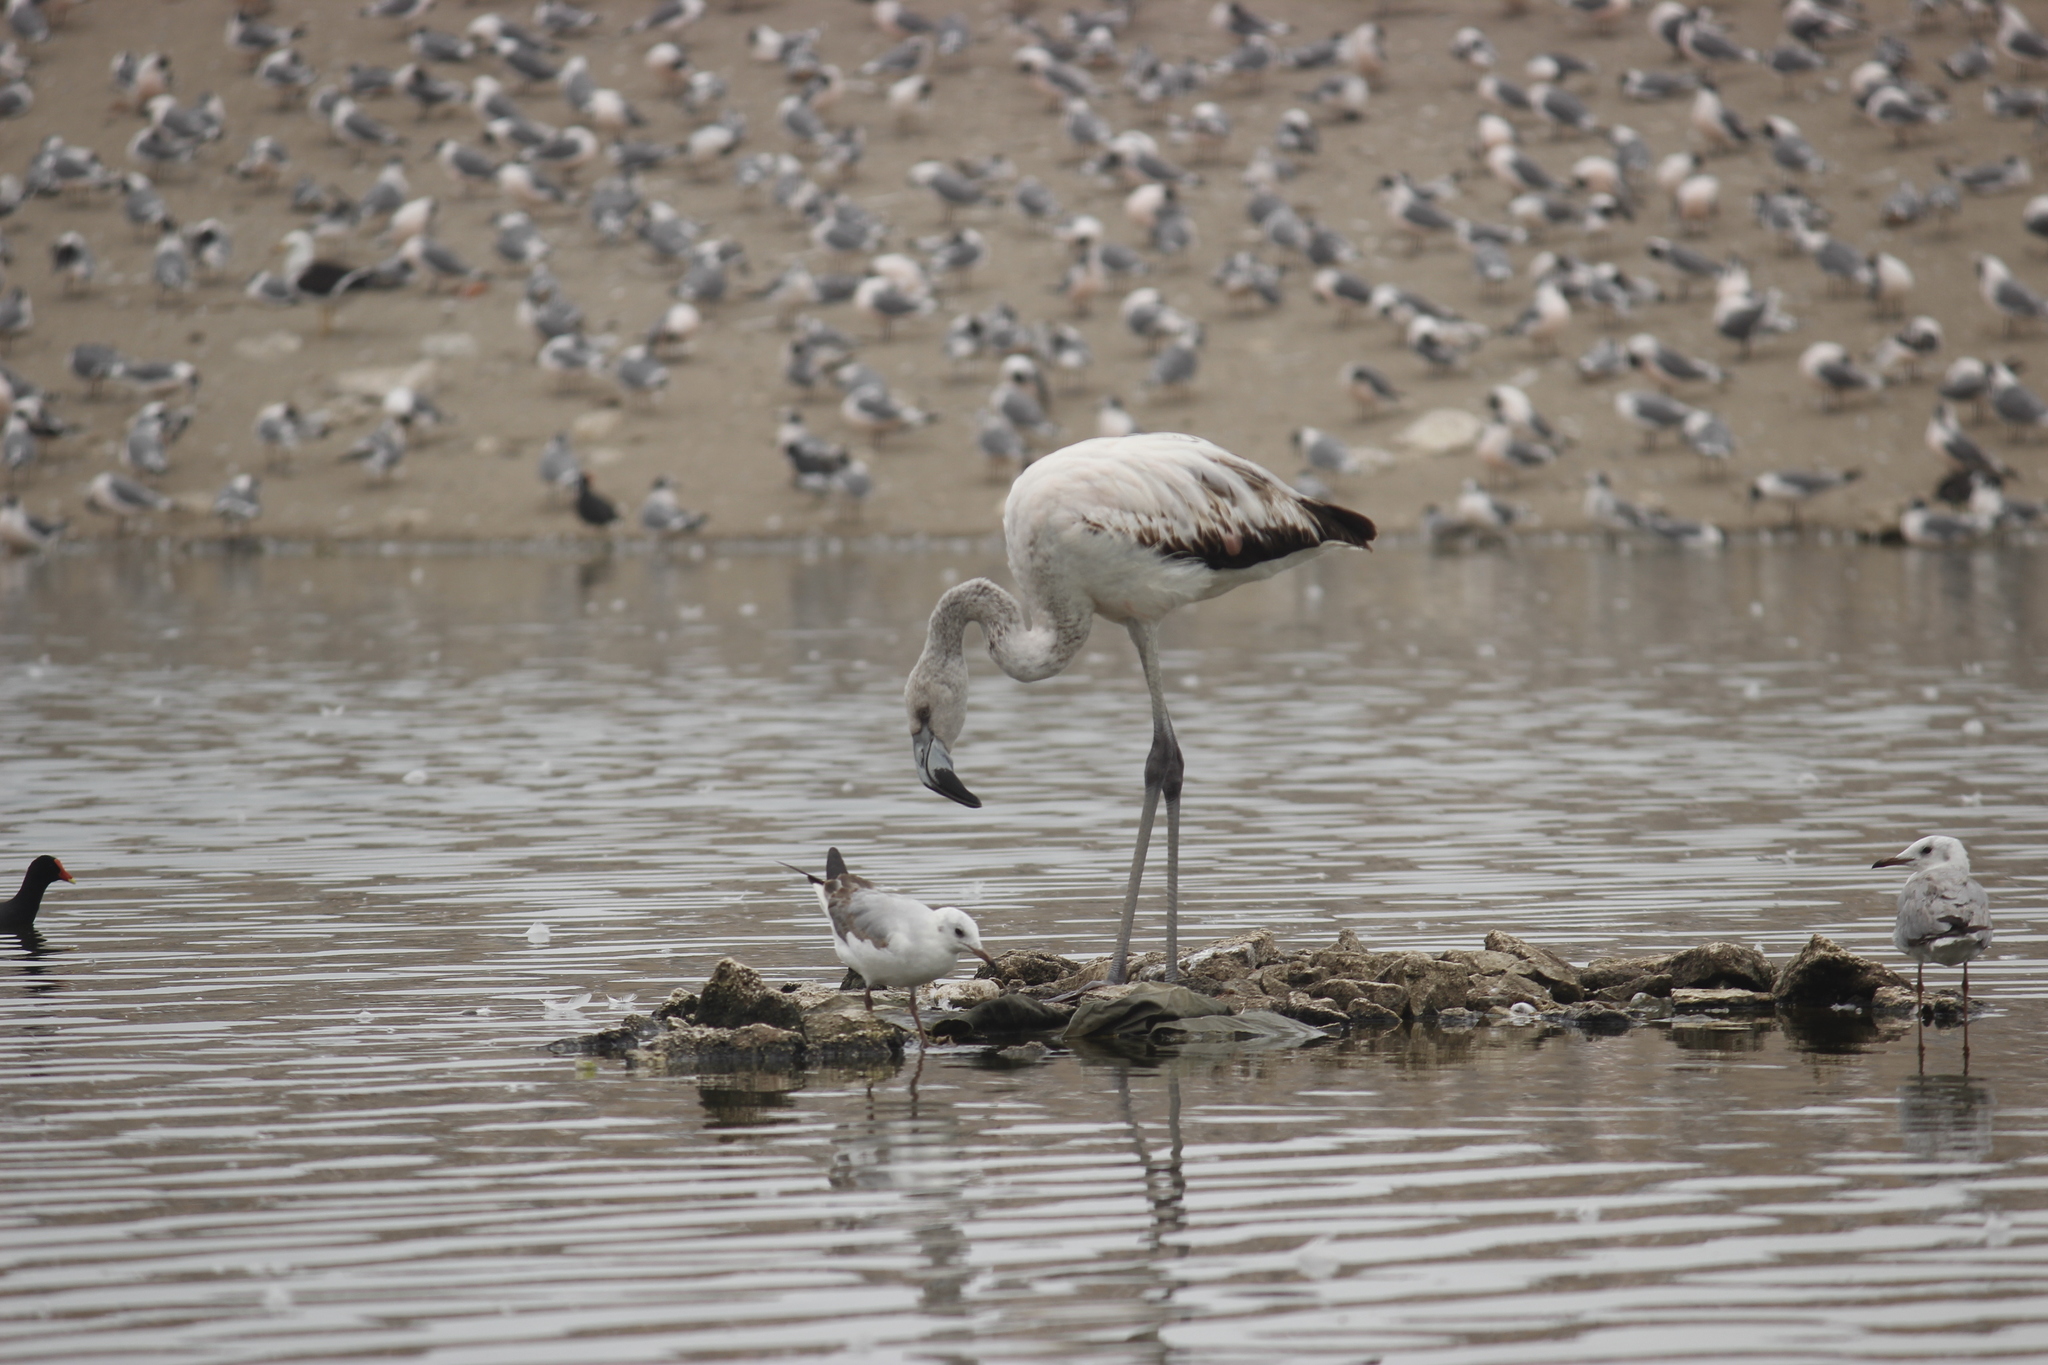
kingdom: Animalia
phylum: Chordata
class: Aves
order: Phoenicopteriformes
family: Phoenicopteridae
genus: Phoenicopterus
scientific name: Phoenicopterus chilensis
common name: Chilean flamingo
